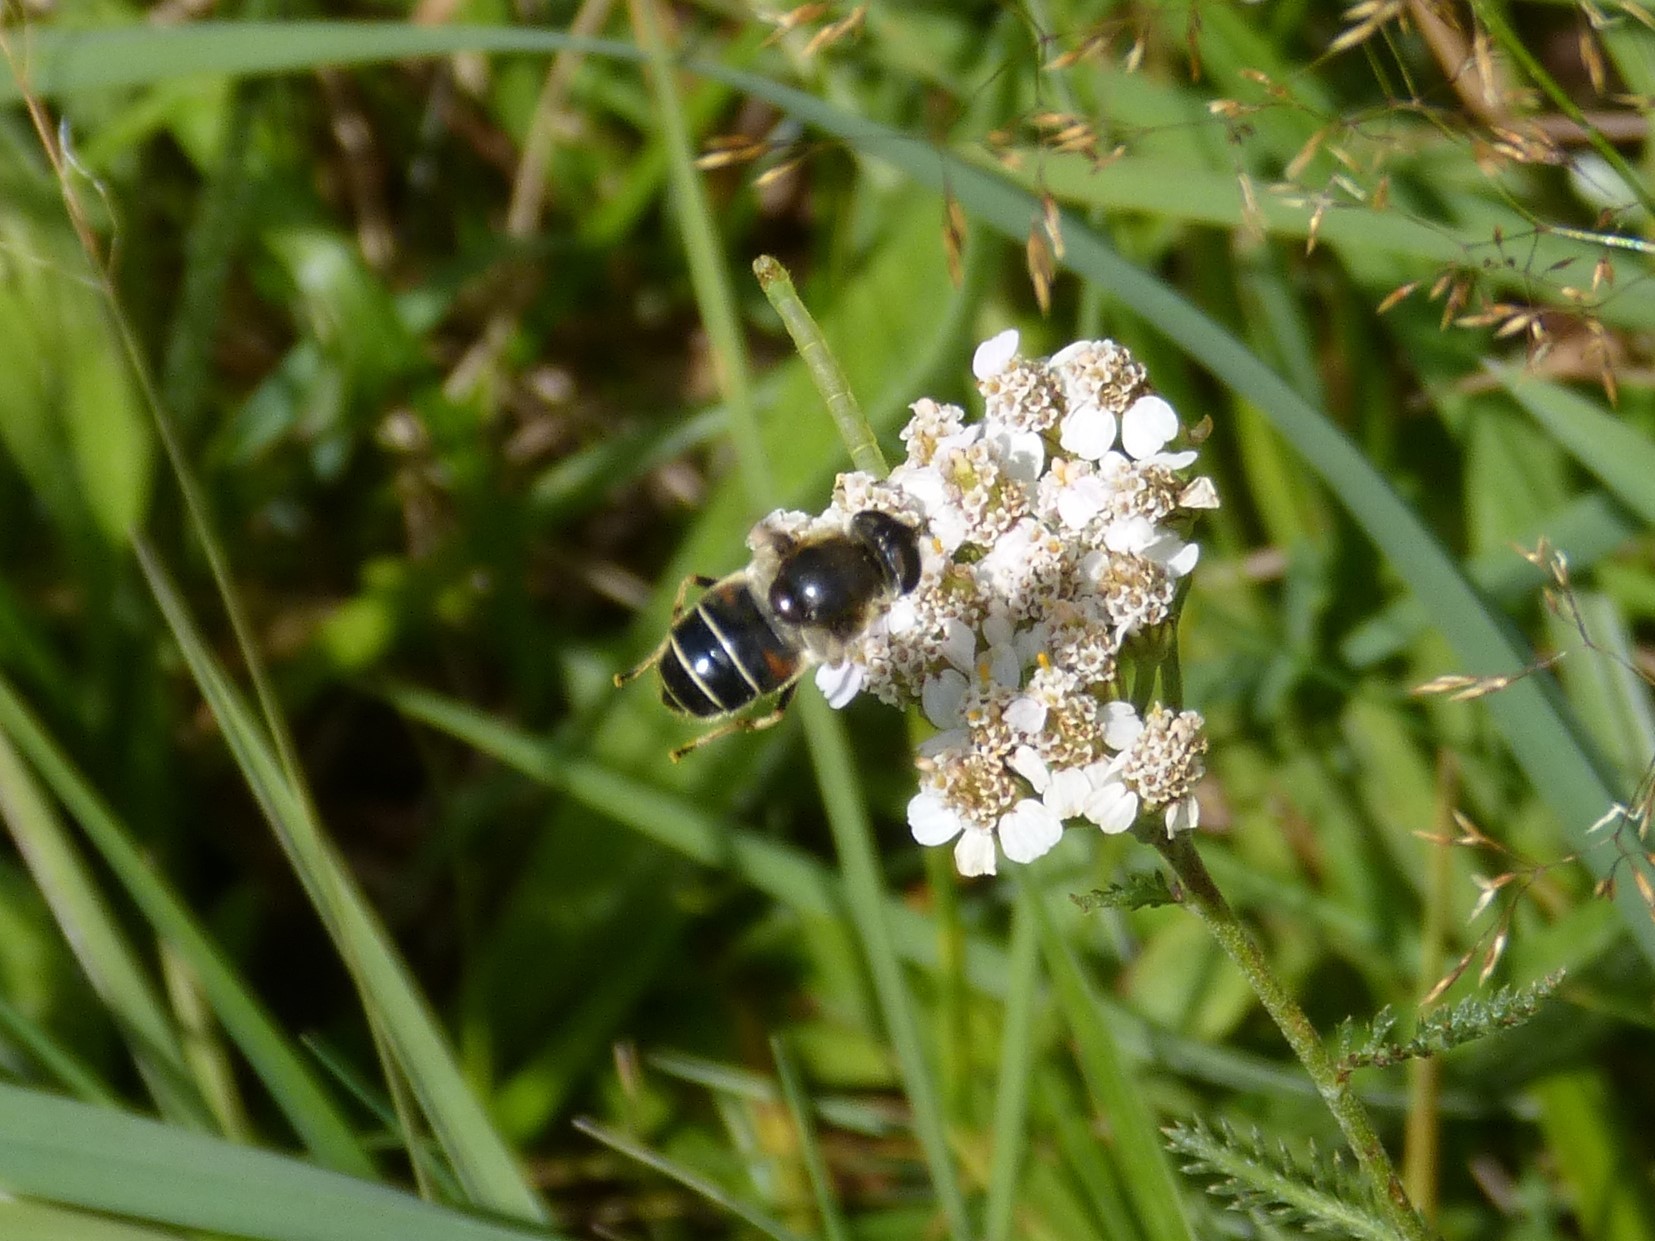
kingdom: Animalia
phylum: Arthropoda
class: Insecta
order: Diptera
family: Syrphidae
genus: Eristalis
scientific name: Eristalis rupium
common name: Hover fly
